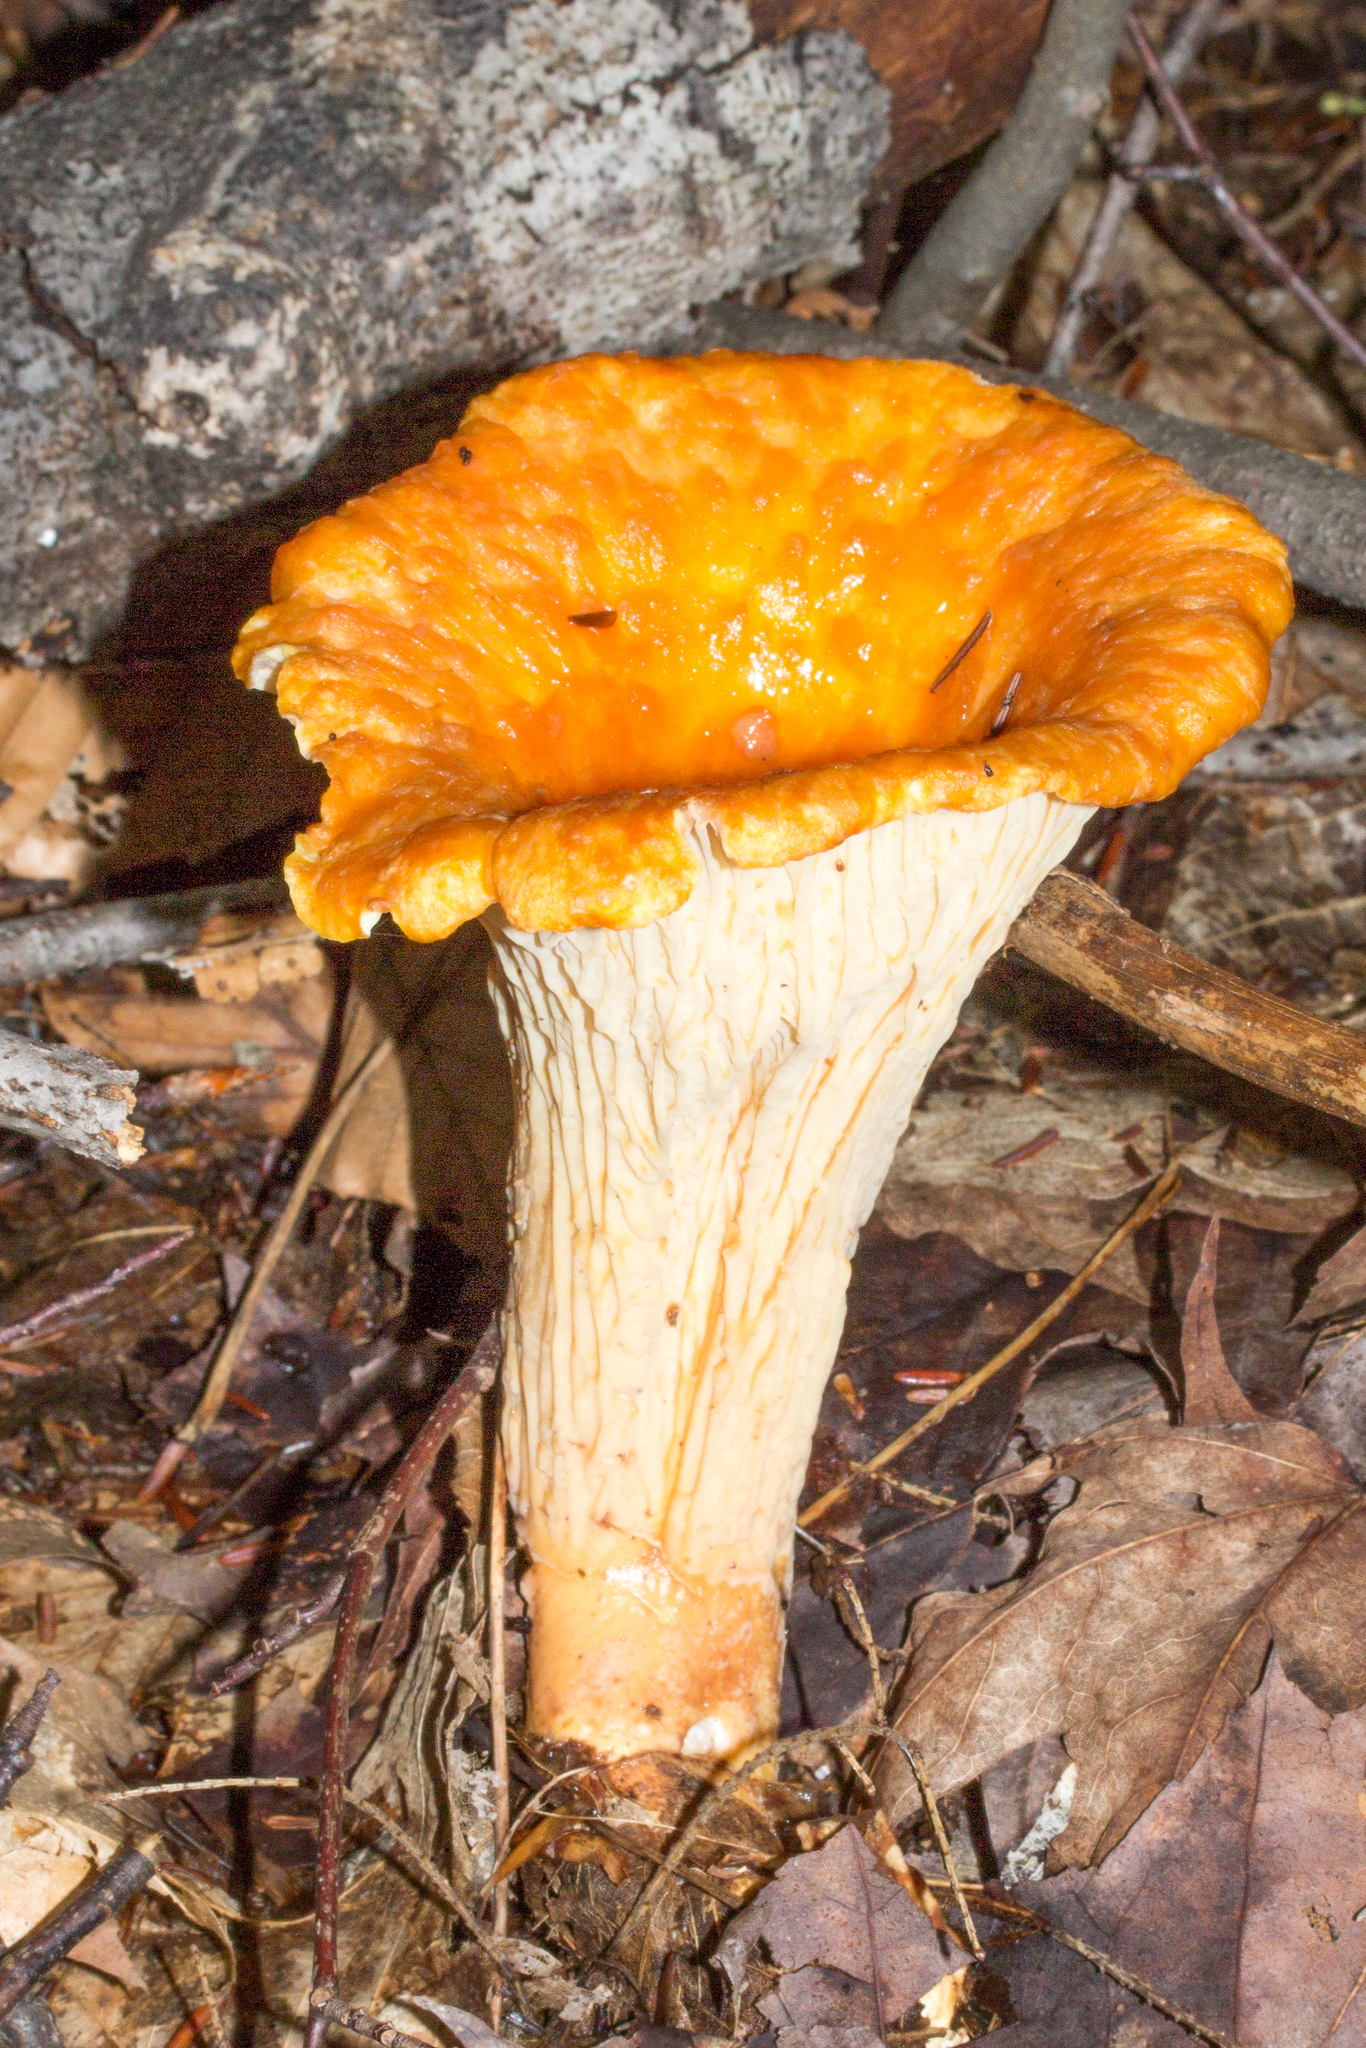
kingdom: Fungi
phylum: Basidiomycota
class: Agaricomycetes
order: Gomphales
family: Gomphaceae
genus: Turbinellus
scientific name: Turbinellus floccosus
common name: Scaly chanterelle
